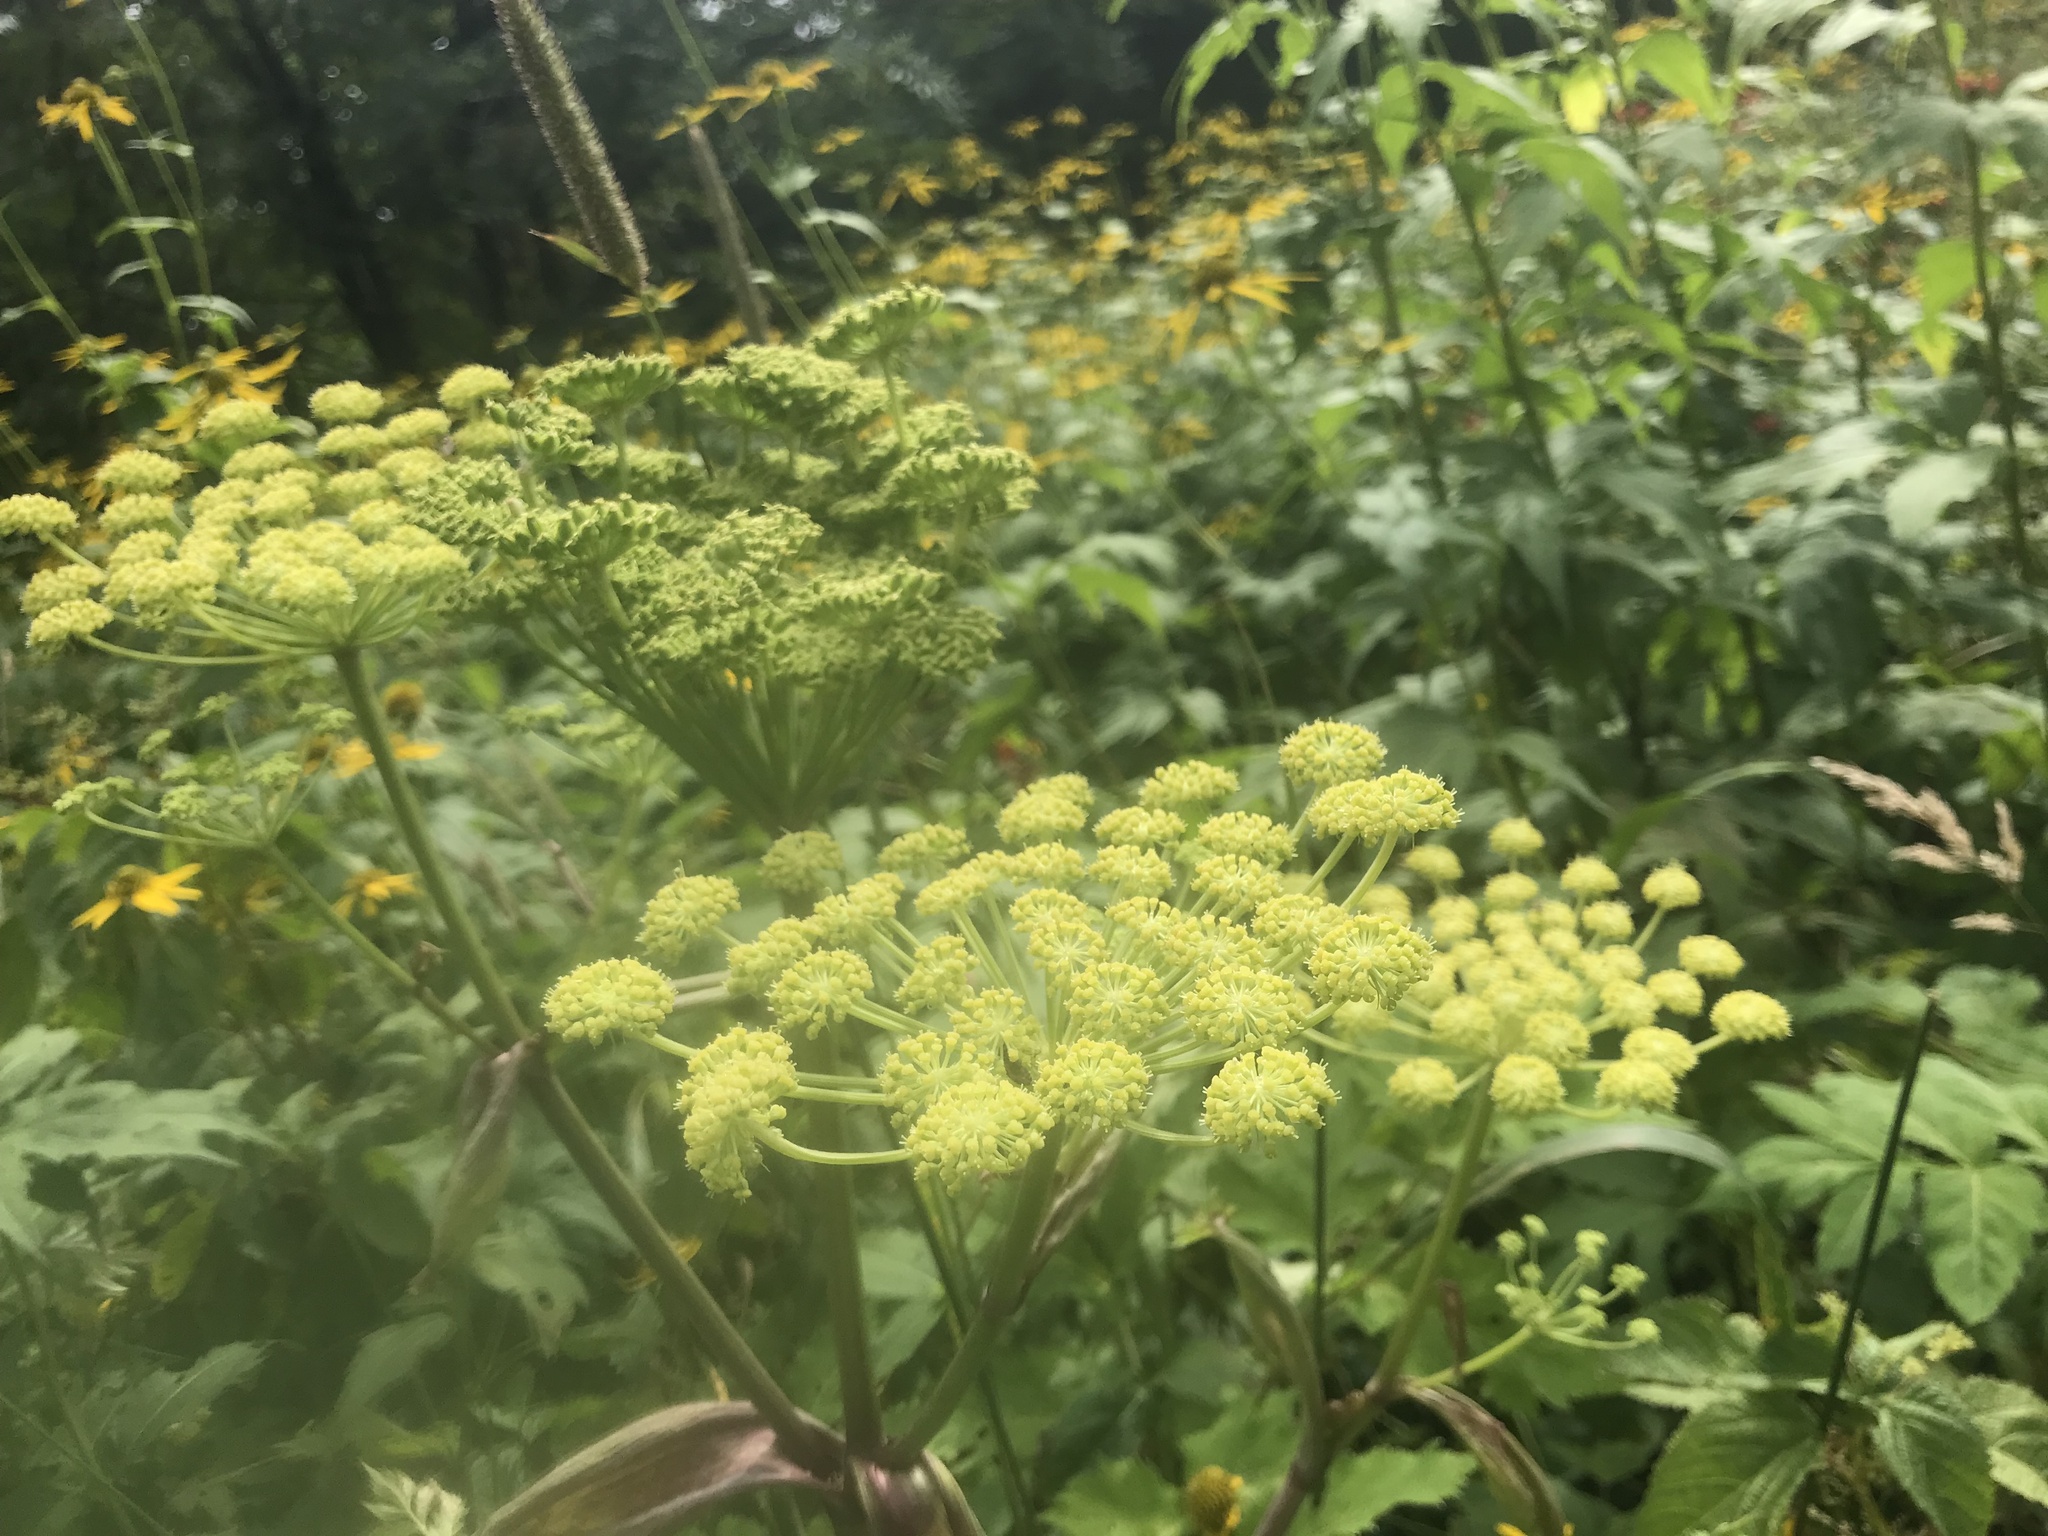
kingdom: Plantae
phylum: Tracheophyta
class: Magnoliopsida
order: Apiales
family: Apiaceae
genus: Angelica
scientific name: Angelica triquinata
